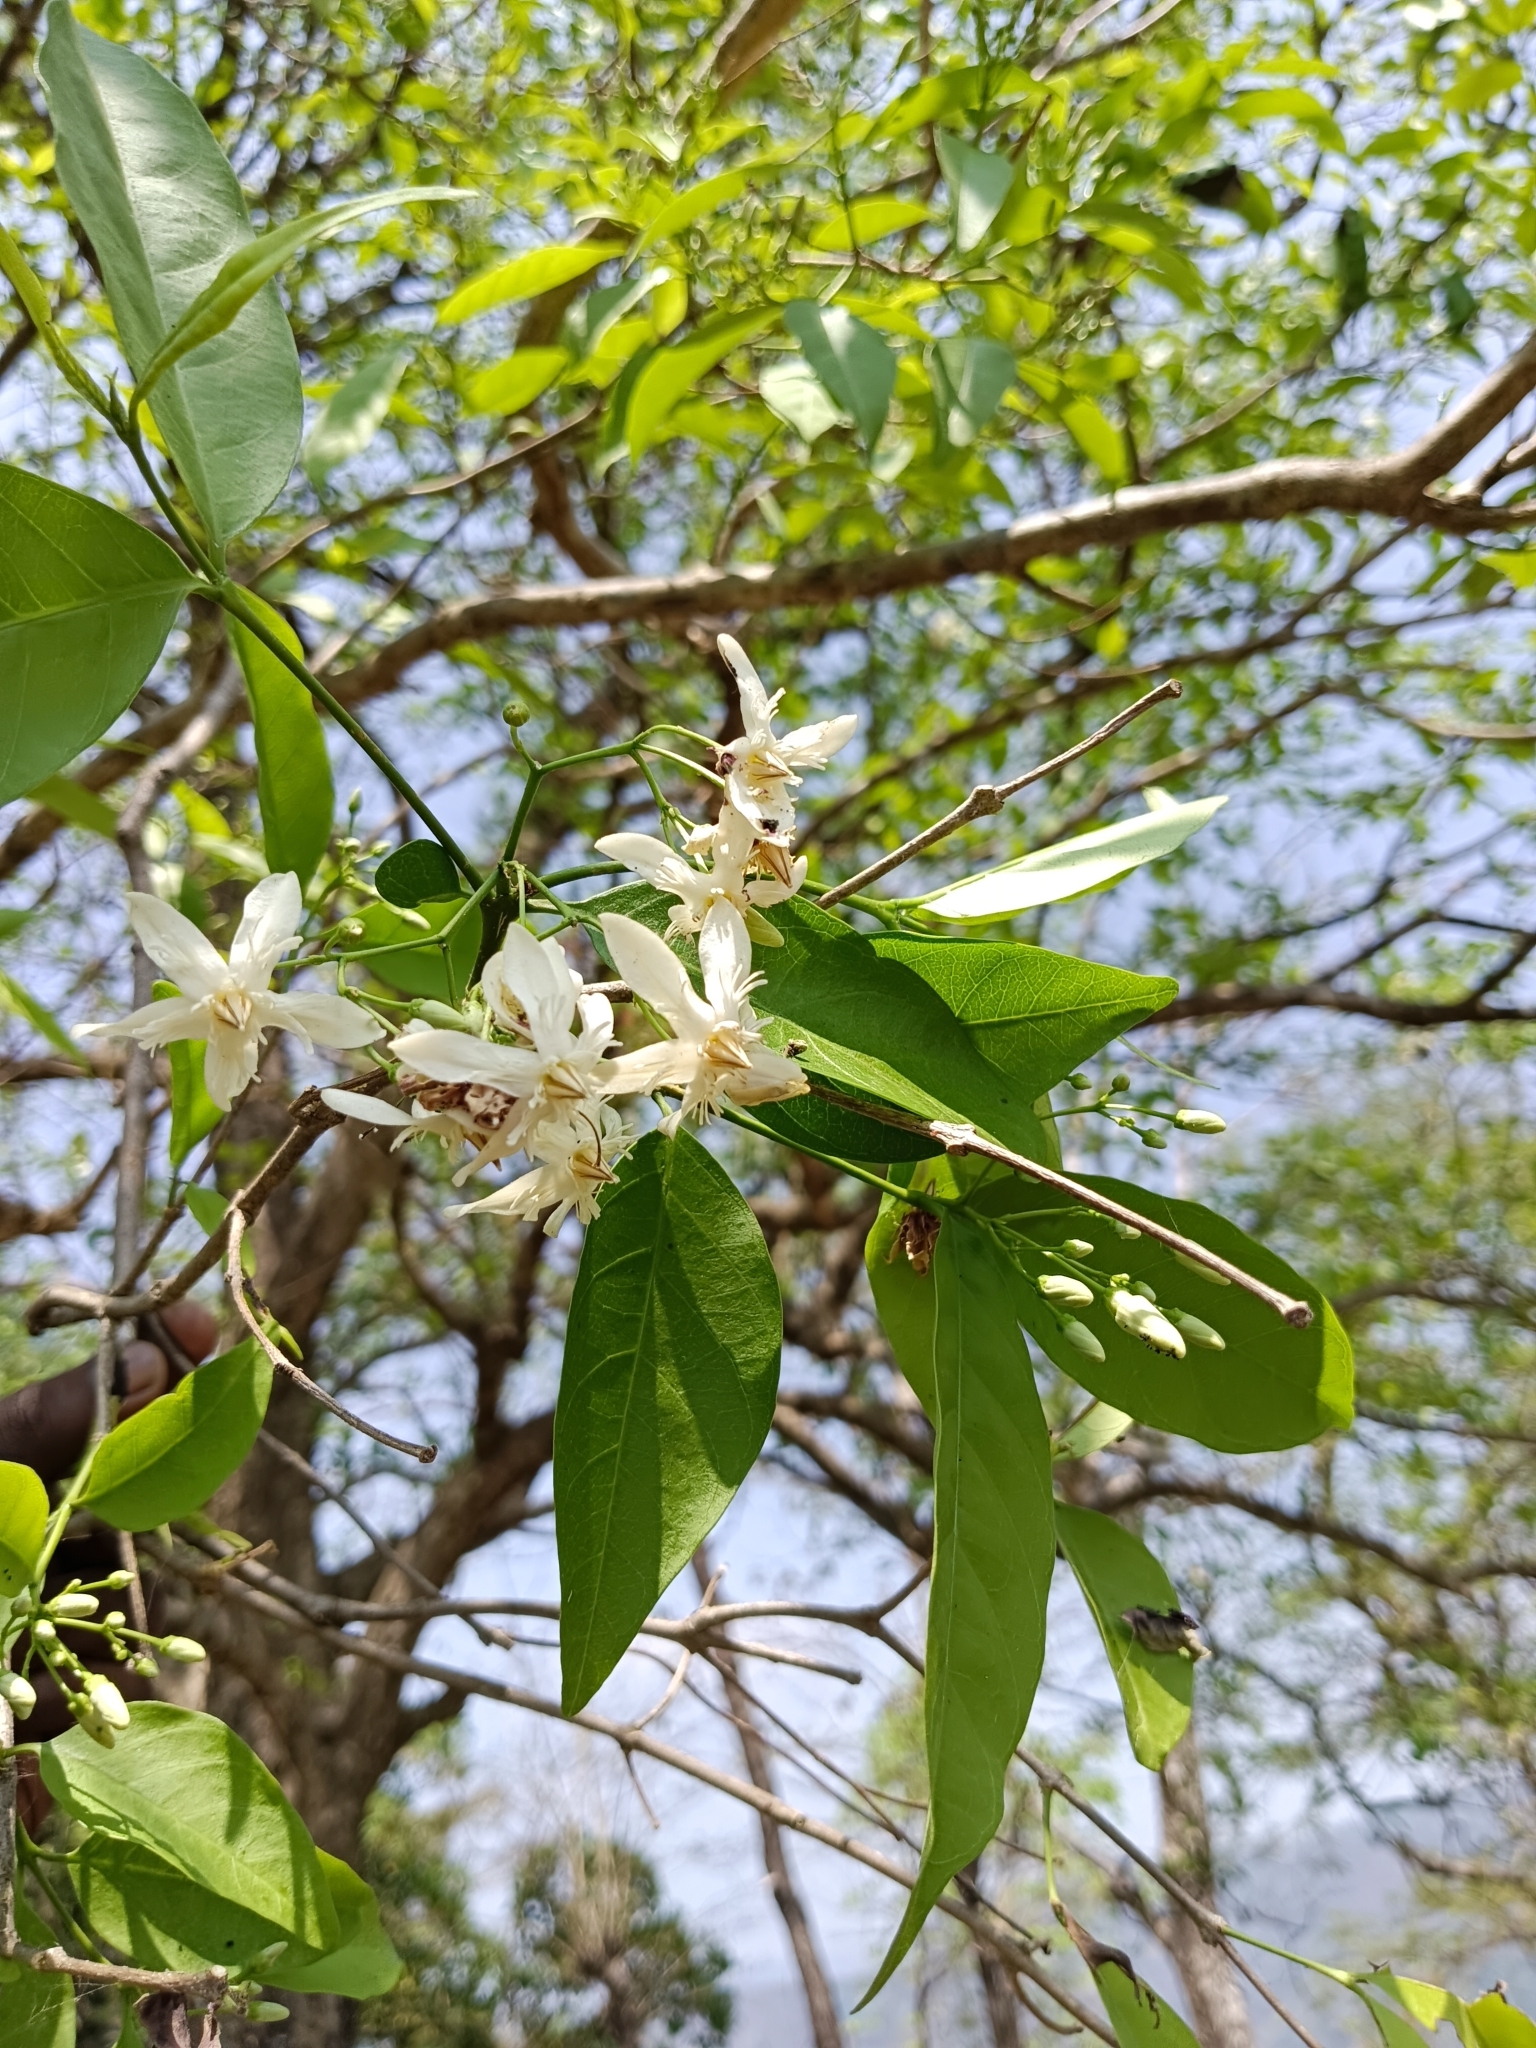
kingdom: Plantae
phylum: Tracheophyta
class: Magnoliopsida
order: Gentianales
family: Apocynaceae
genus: Wrightia
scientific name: Wrightia tinctoria
